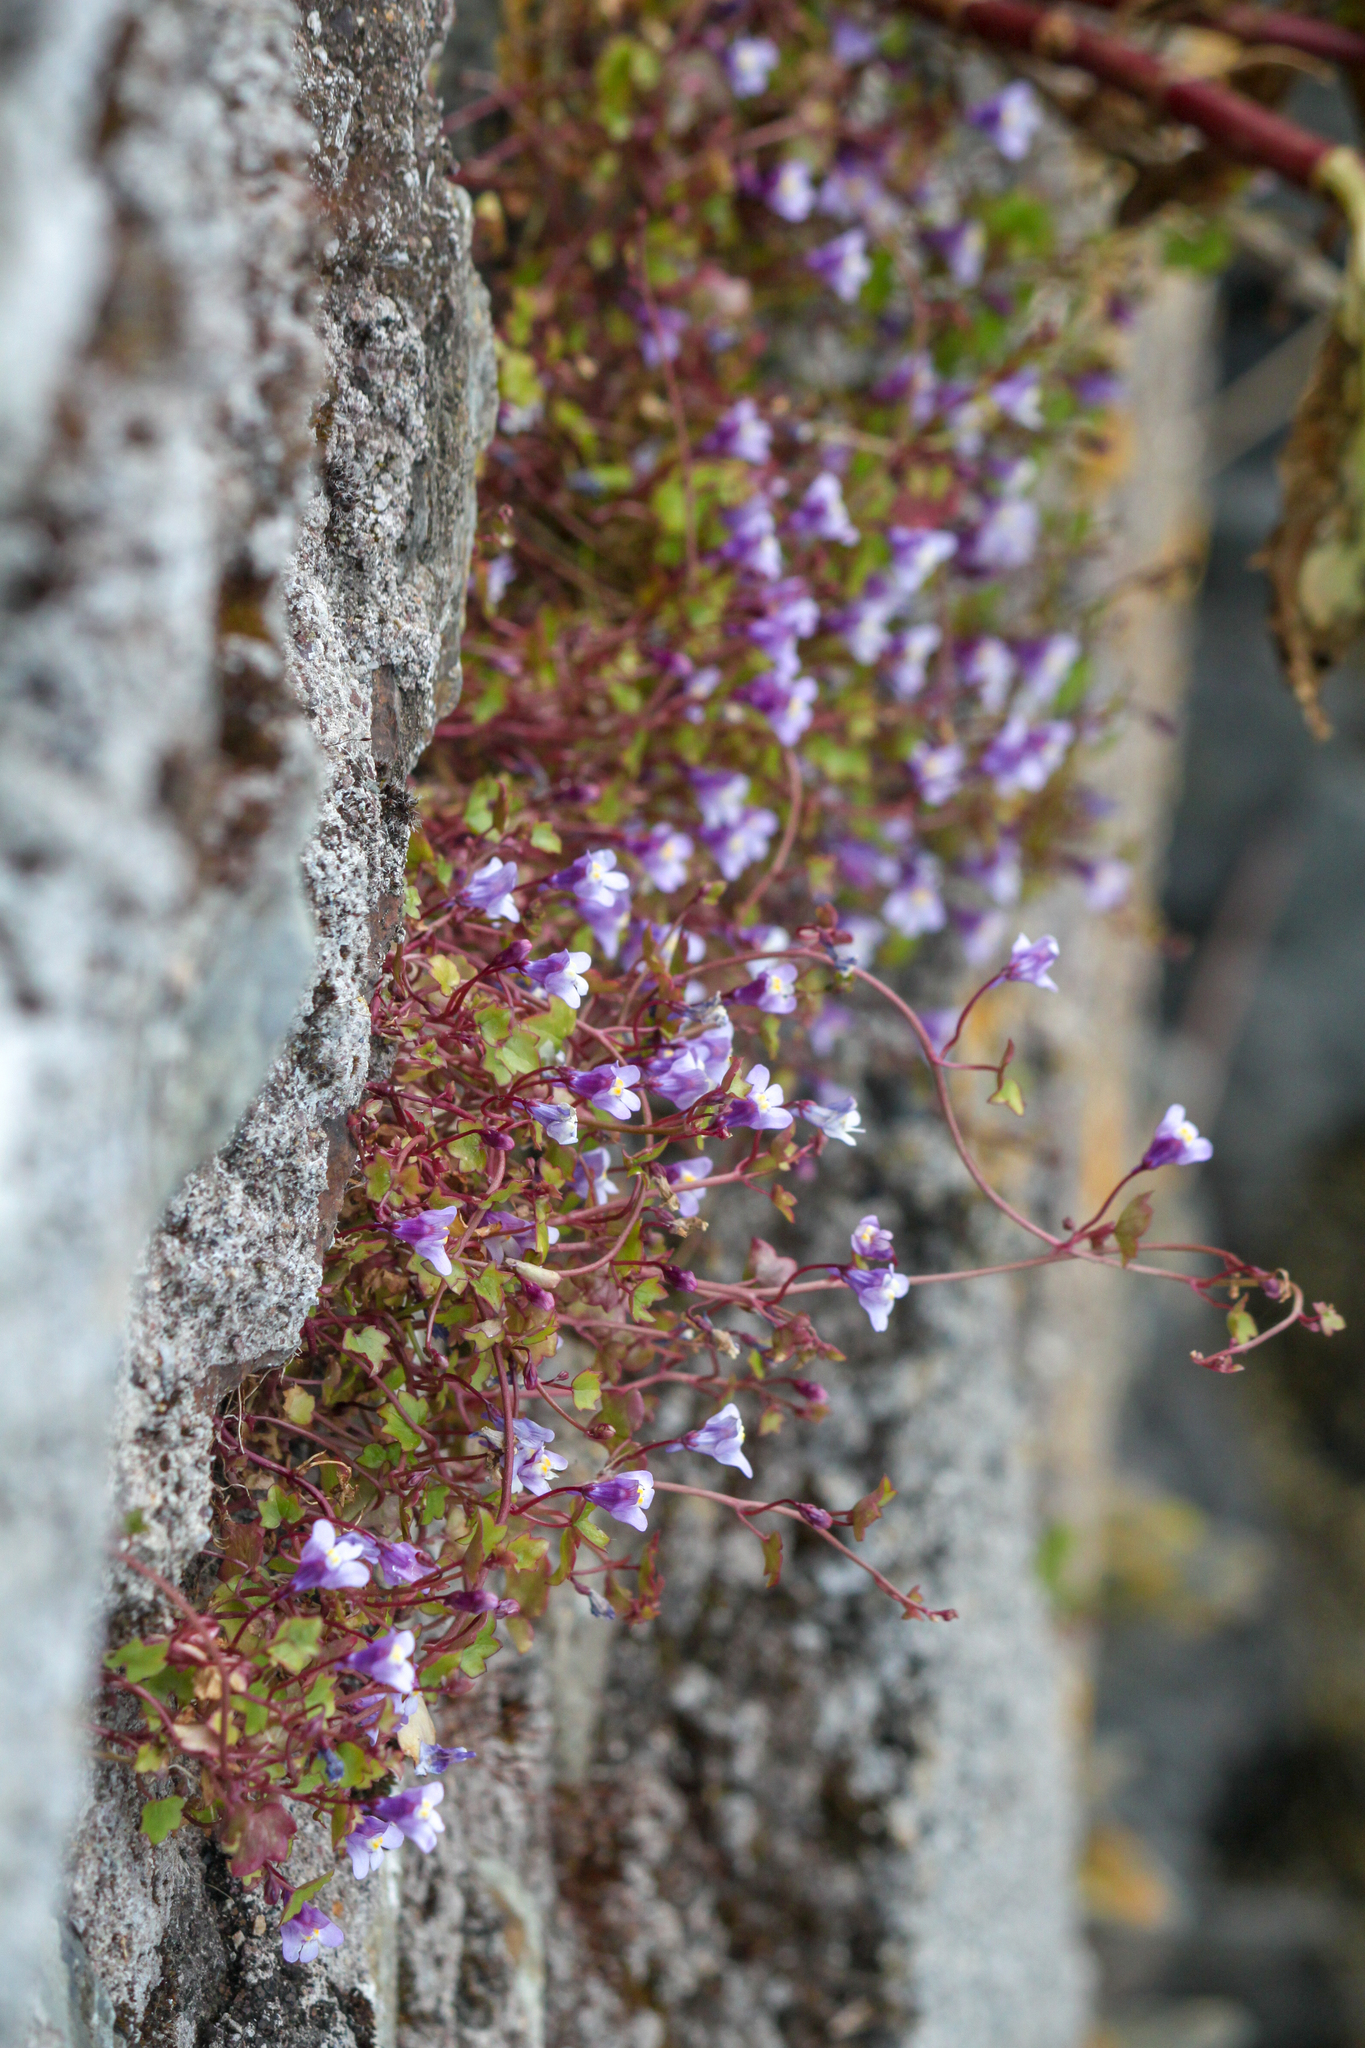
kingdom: Plantae
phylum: Tracheophyta
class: Magnoliopsida
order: Lamiales
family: Plantaginaceae
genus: Cymbalaria
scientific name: Cymbalaria muralis
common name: Ivy-leaved toadflax
